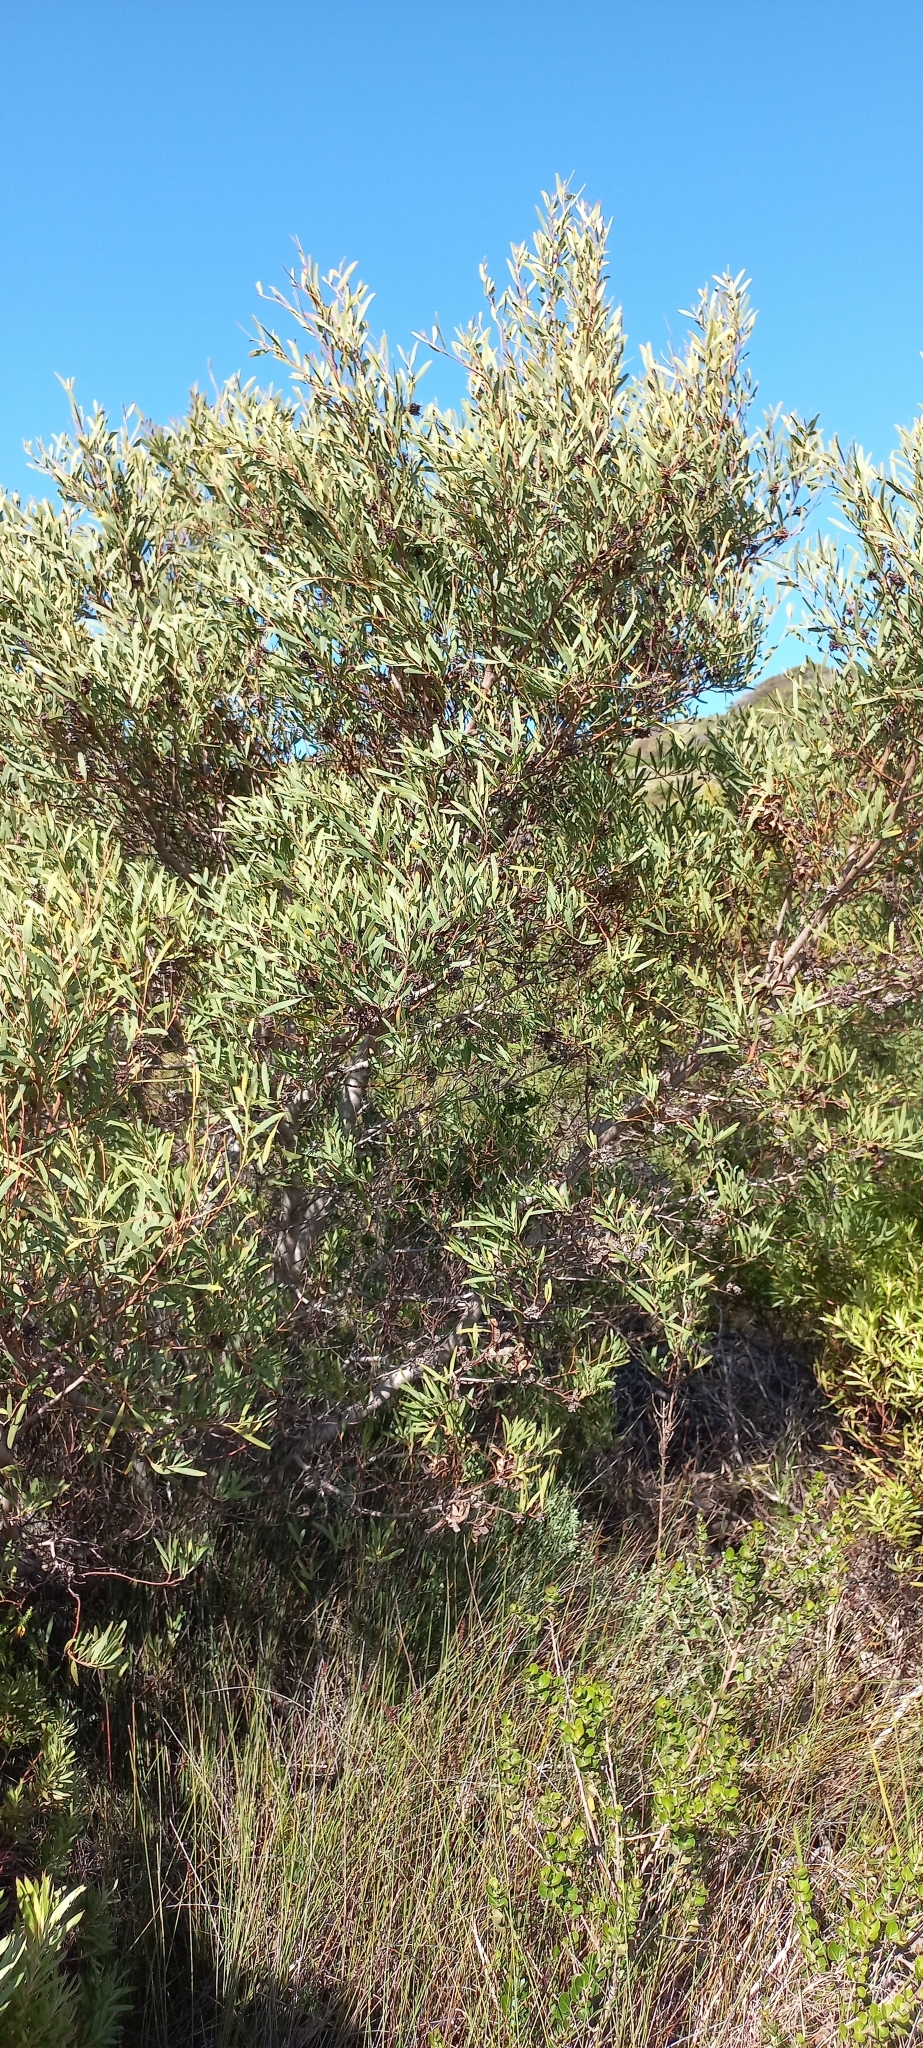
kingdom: Plantae
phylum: Tracheophyta
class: Magnoliopsida
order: Fabales
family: Fabaceae
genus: Acacia
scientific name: Acacia cyclops
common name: Coastal wattle
